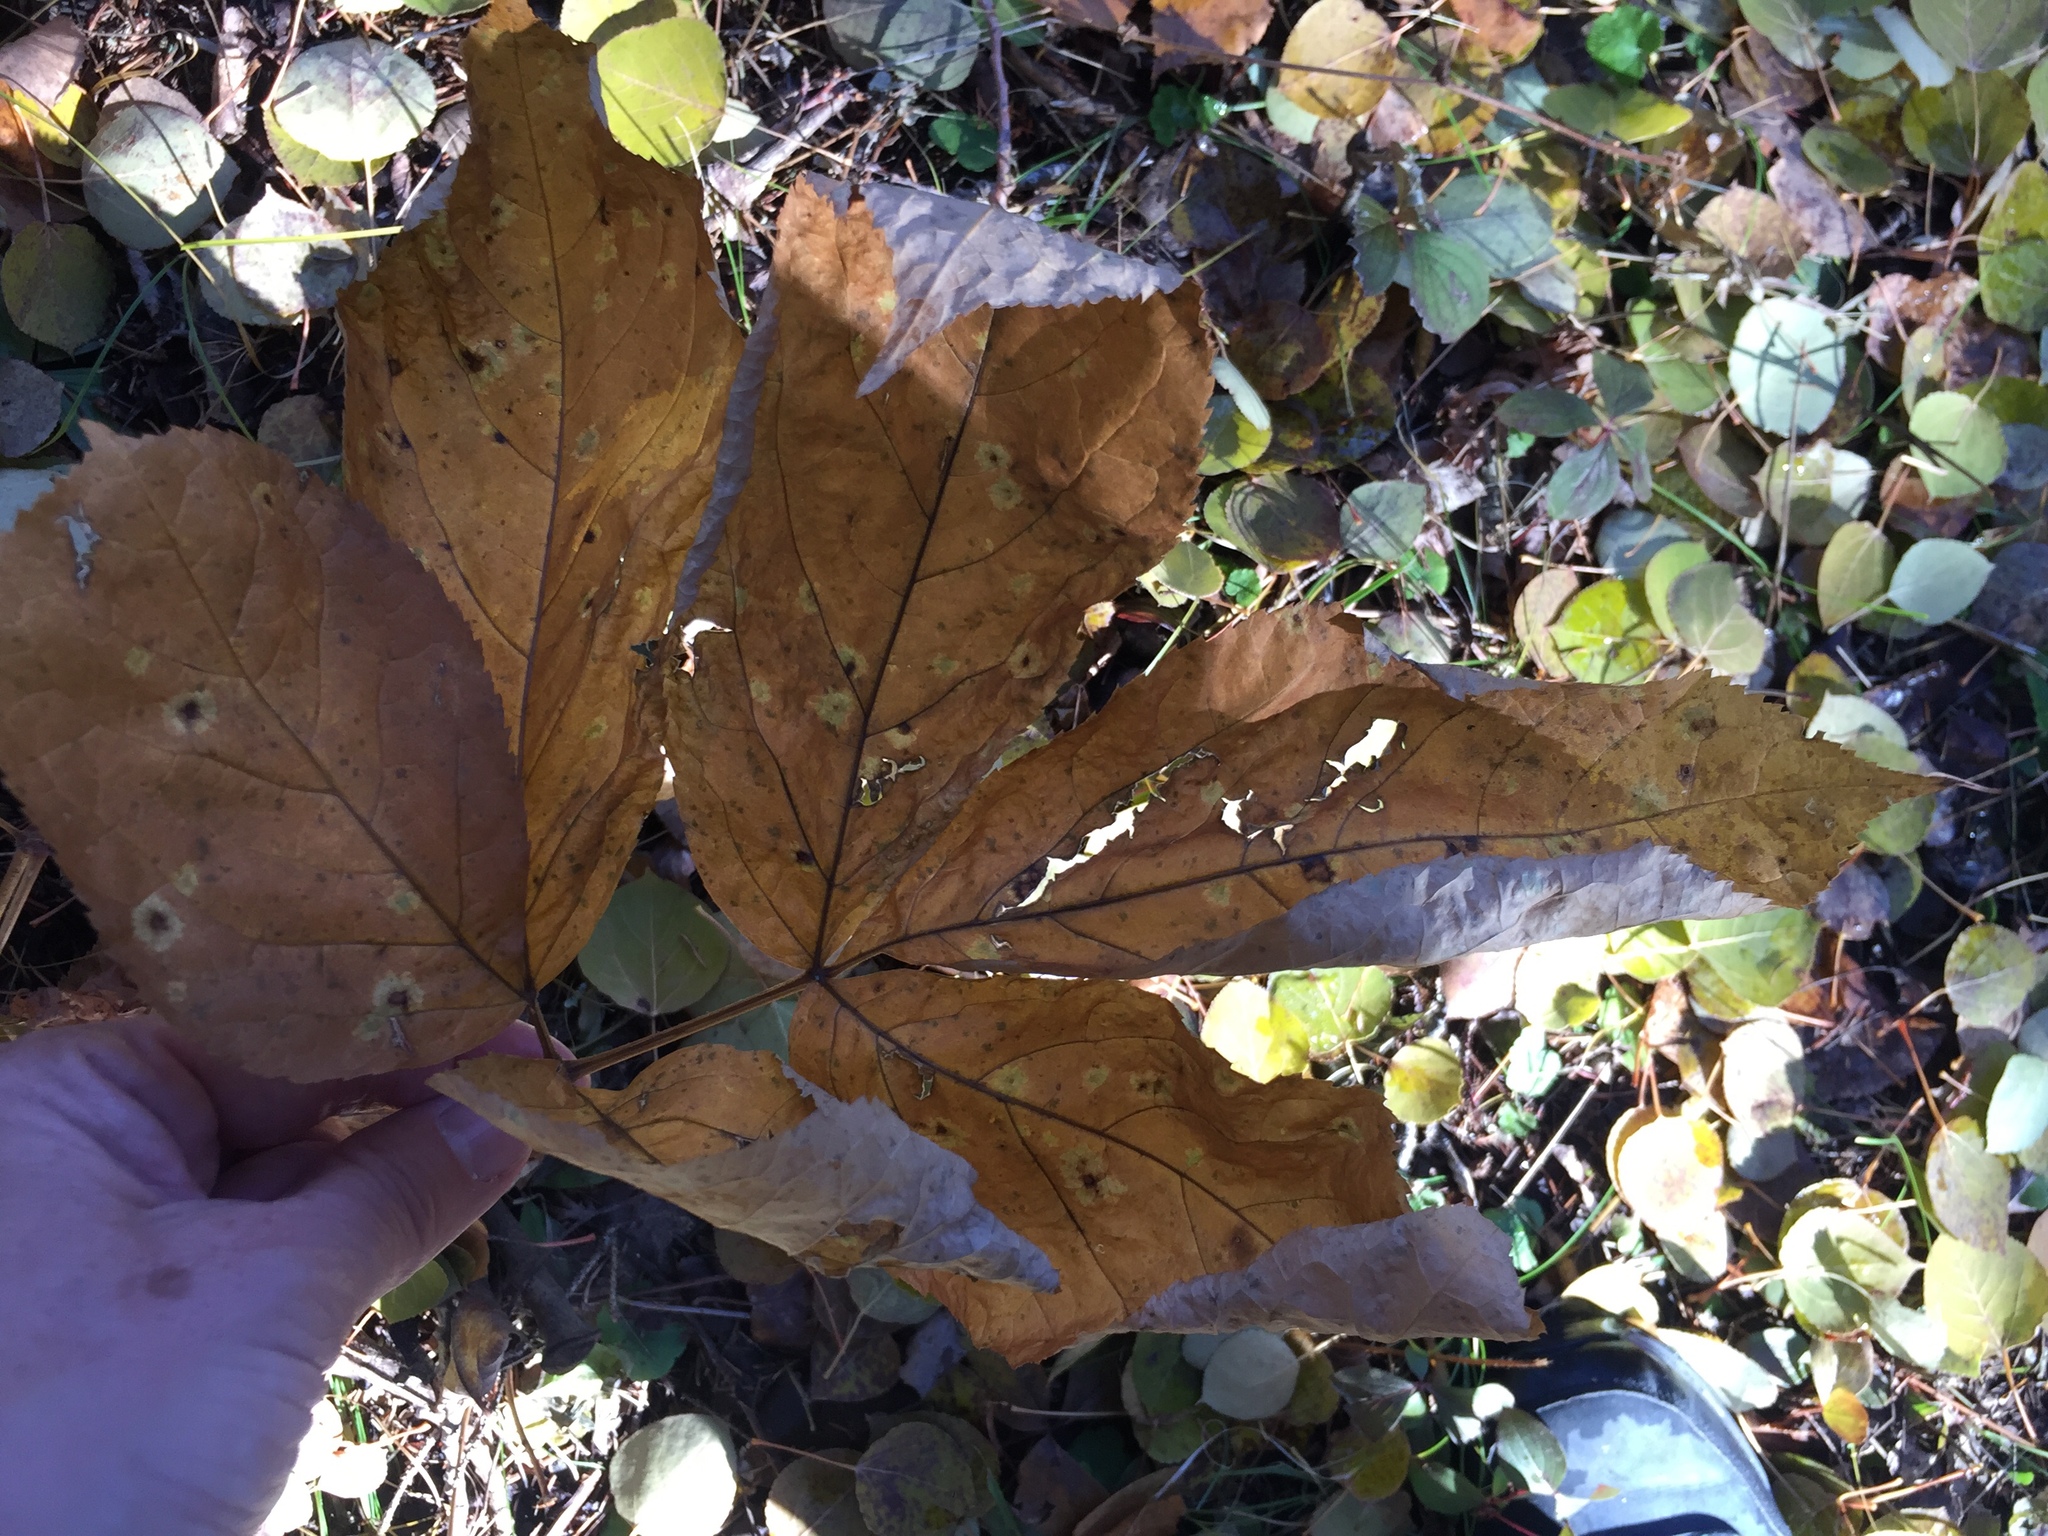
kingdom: Plantae
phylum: Tracheophyta
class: Magnoliopsida
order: Apiales
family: Araliaceae
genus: Aralia
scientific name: Aralia nudicaulis
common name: Wild sarsaparilla
